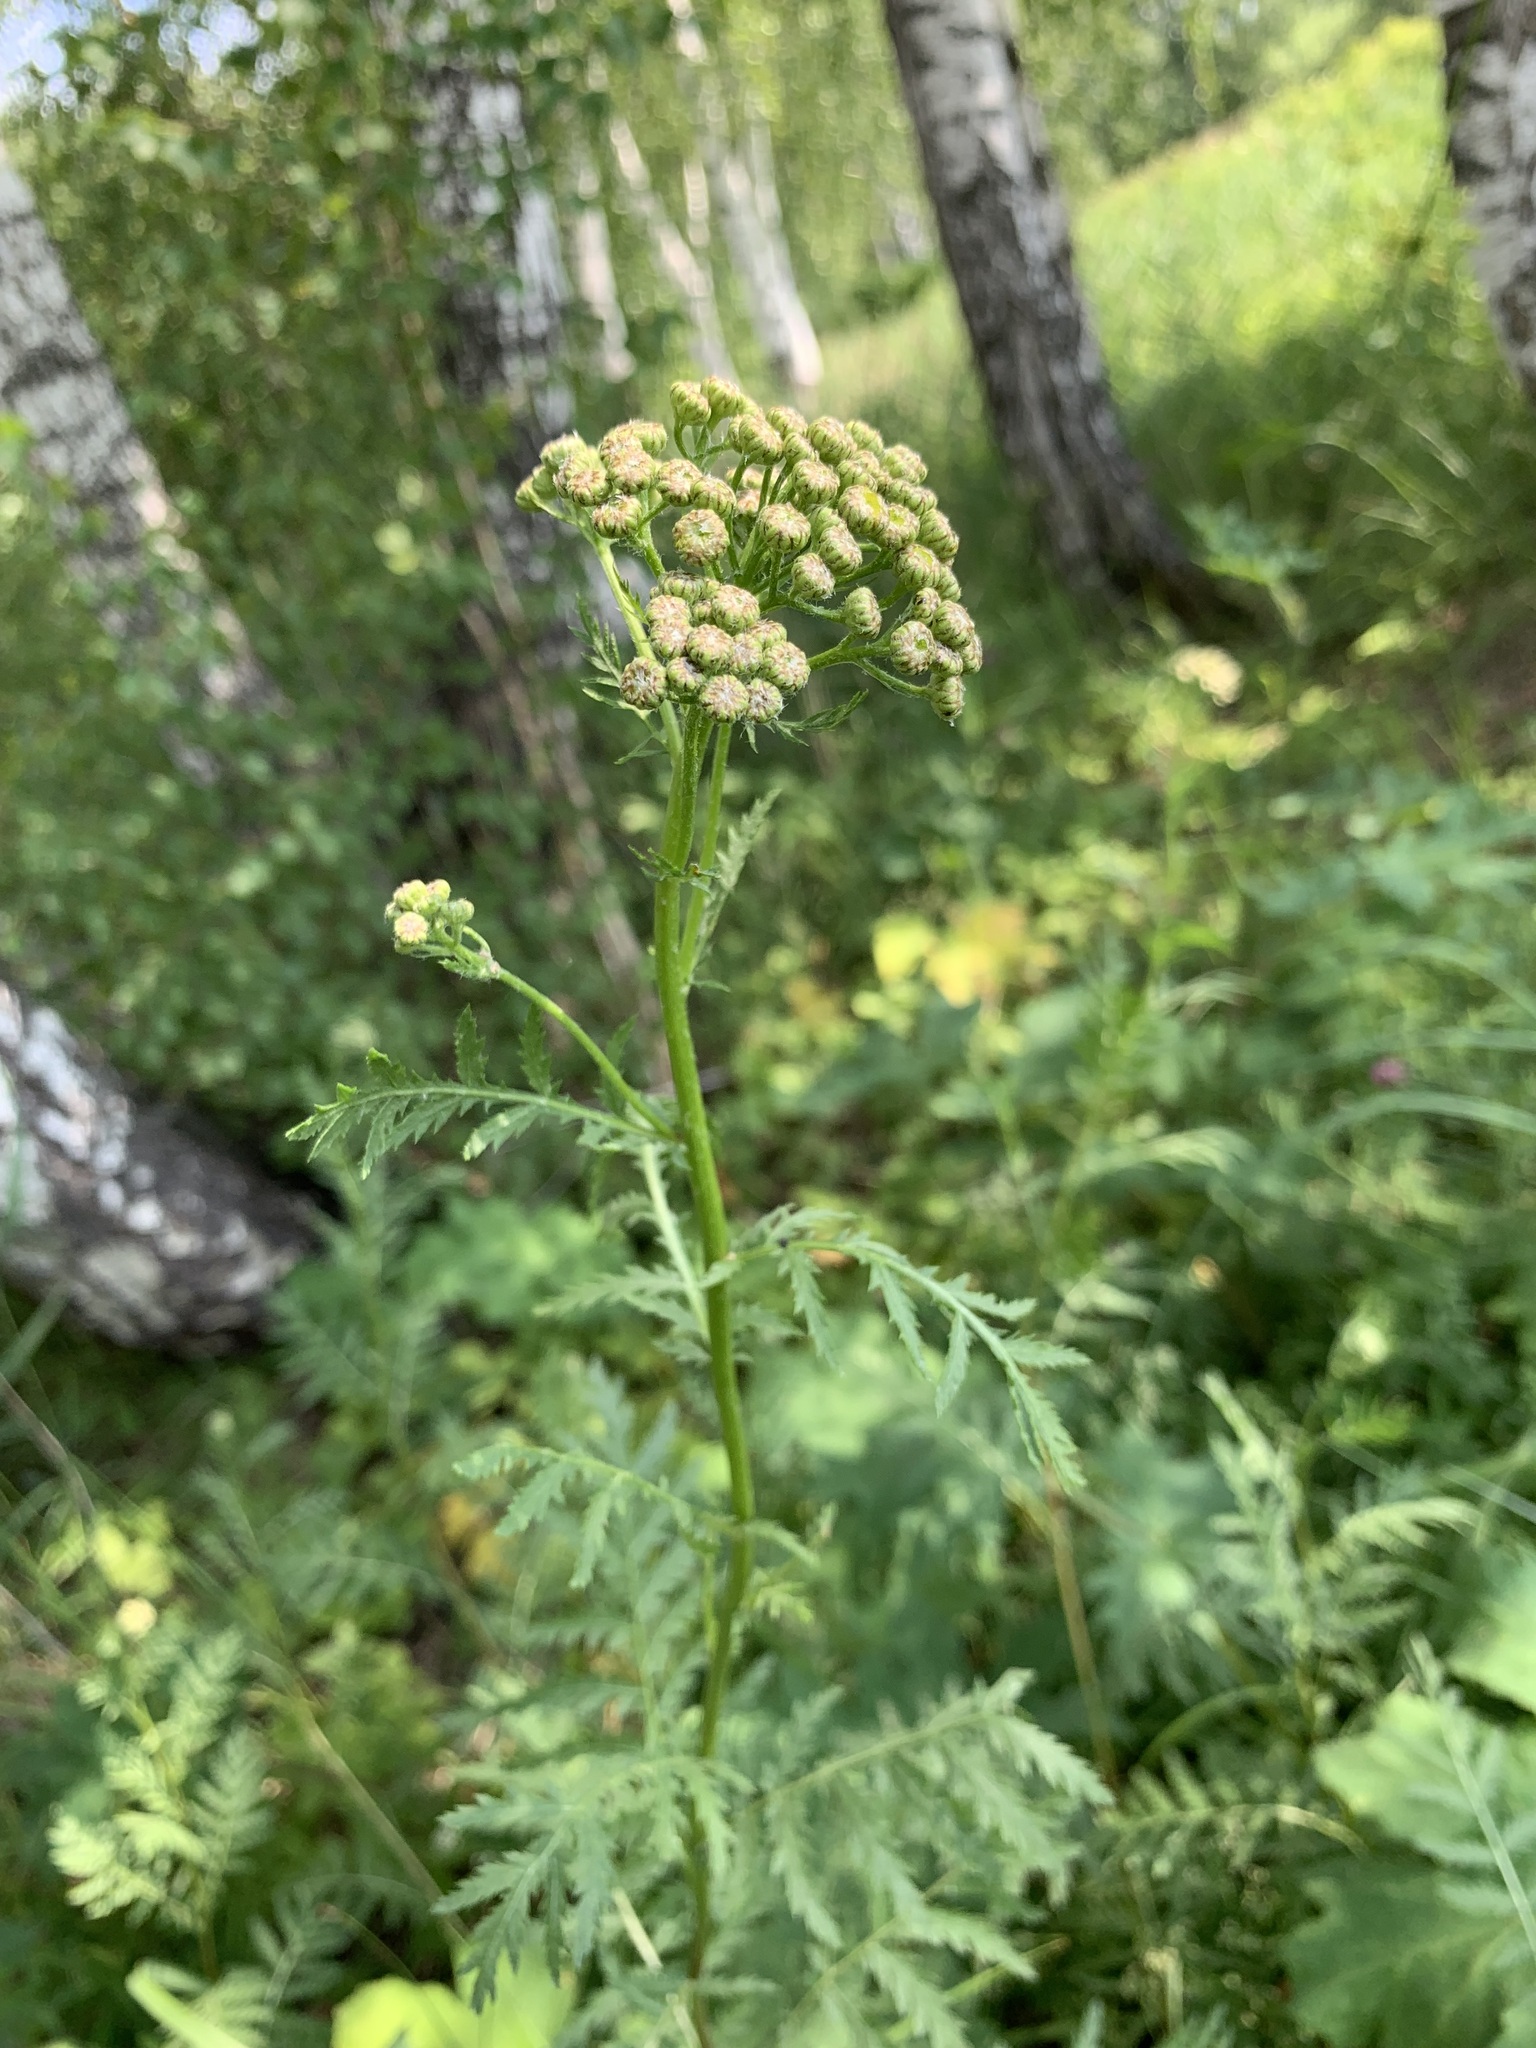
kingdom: Plantae
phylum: Tracheophyta
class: Magnoliopsida
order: Asterales
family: Asteraceae
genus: Tanacetum
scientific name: Tanacetum vulgare
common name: Common tansy
